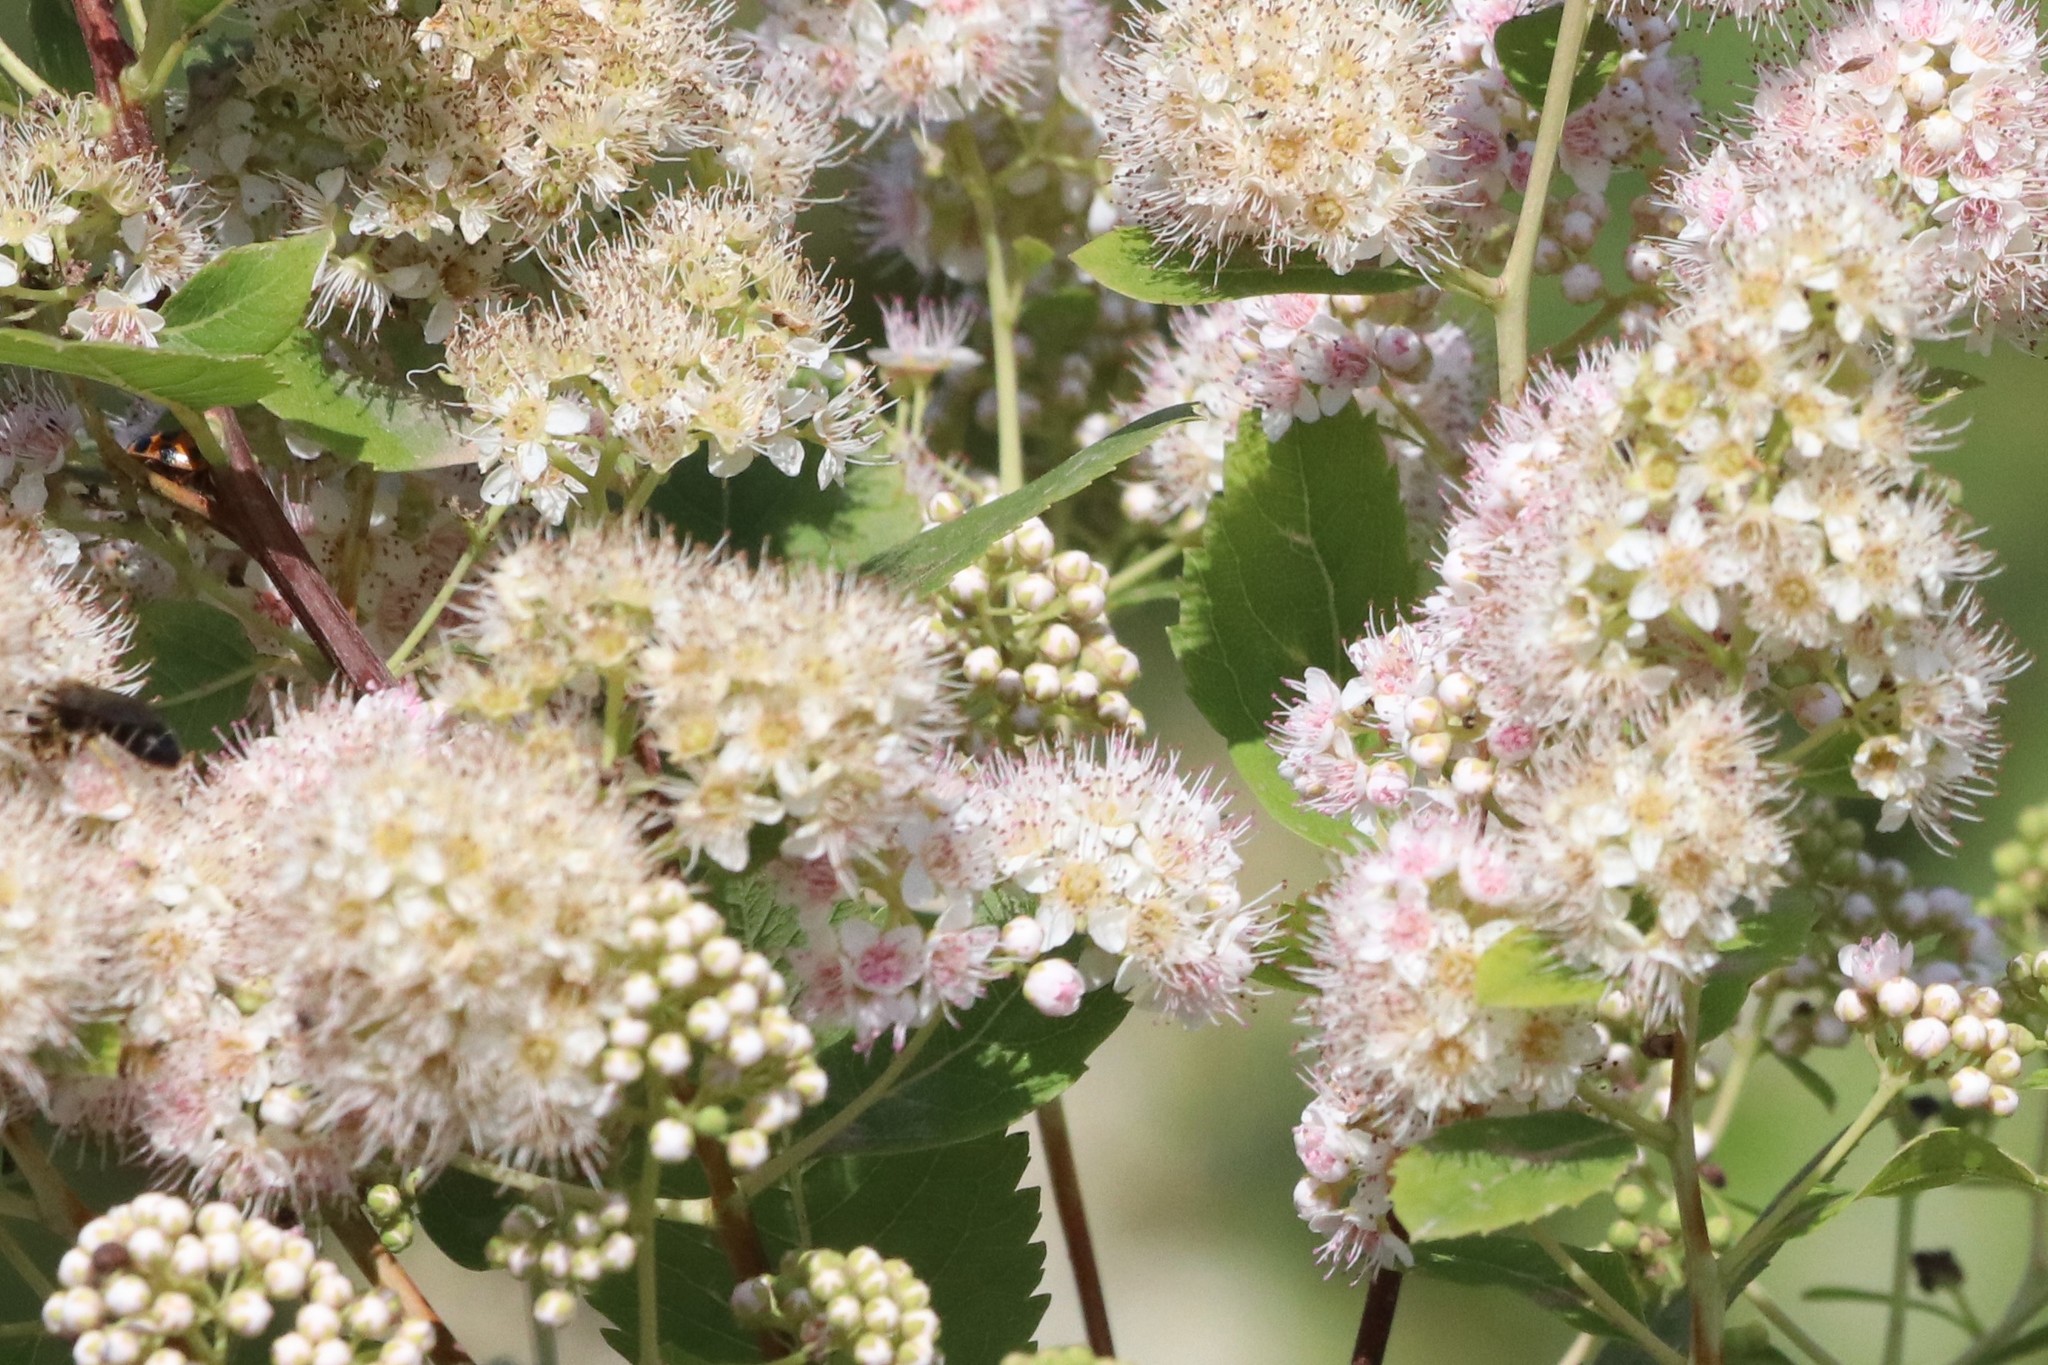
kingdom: Plantae
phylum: Tracheophyta
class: Magnoliopsida
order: Rosales
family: Rosaceae
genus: Spiraea
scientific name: Spiraea alba
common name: Pale bridewort
